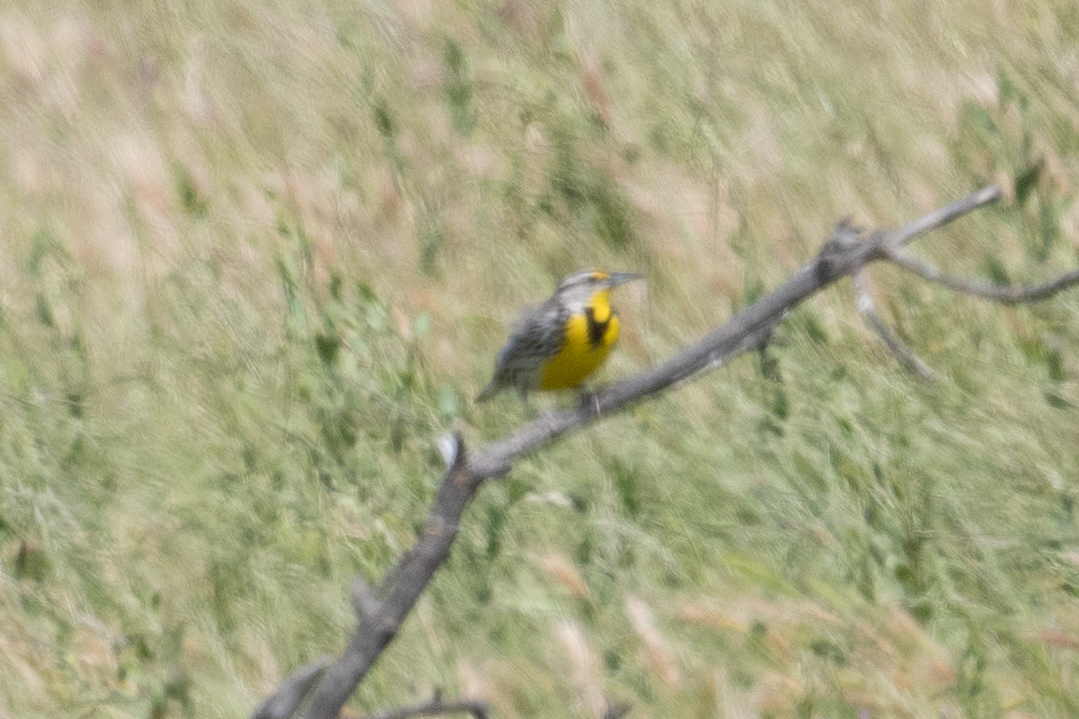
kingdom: Animalia
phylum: Chordata
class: Aves
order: Passeriformes
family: Icteridae
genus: Sturnella
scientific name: Sturnella neglecta
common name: Western meadowlark
